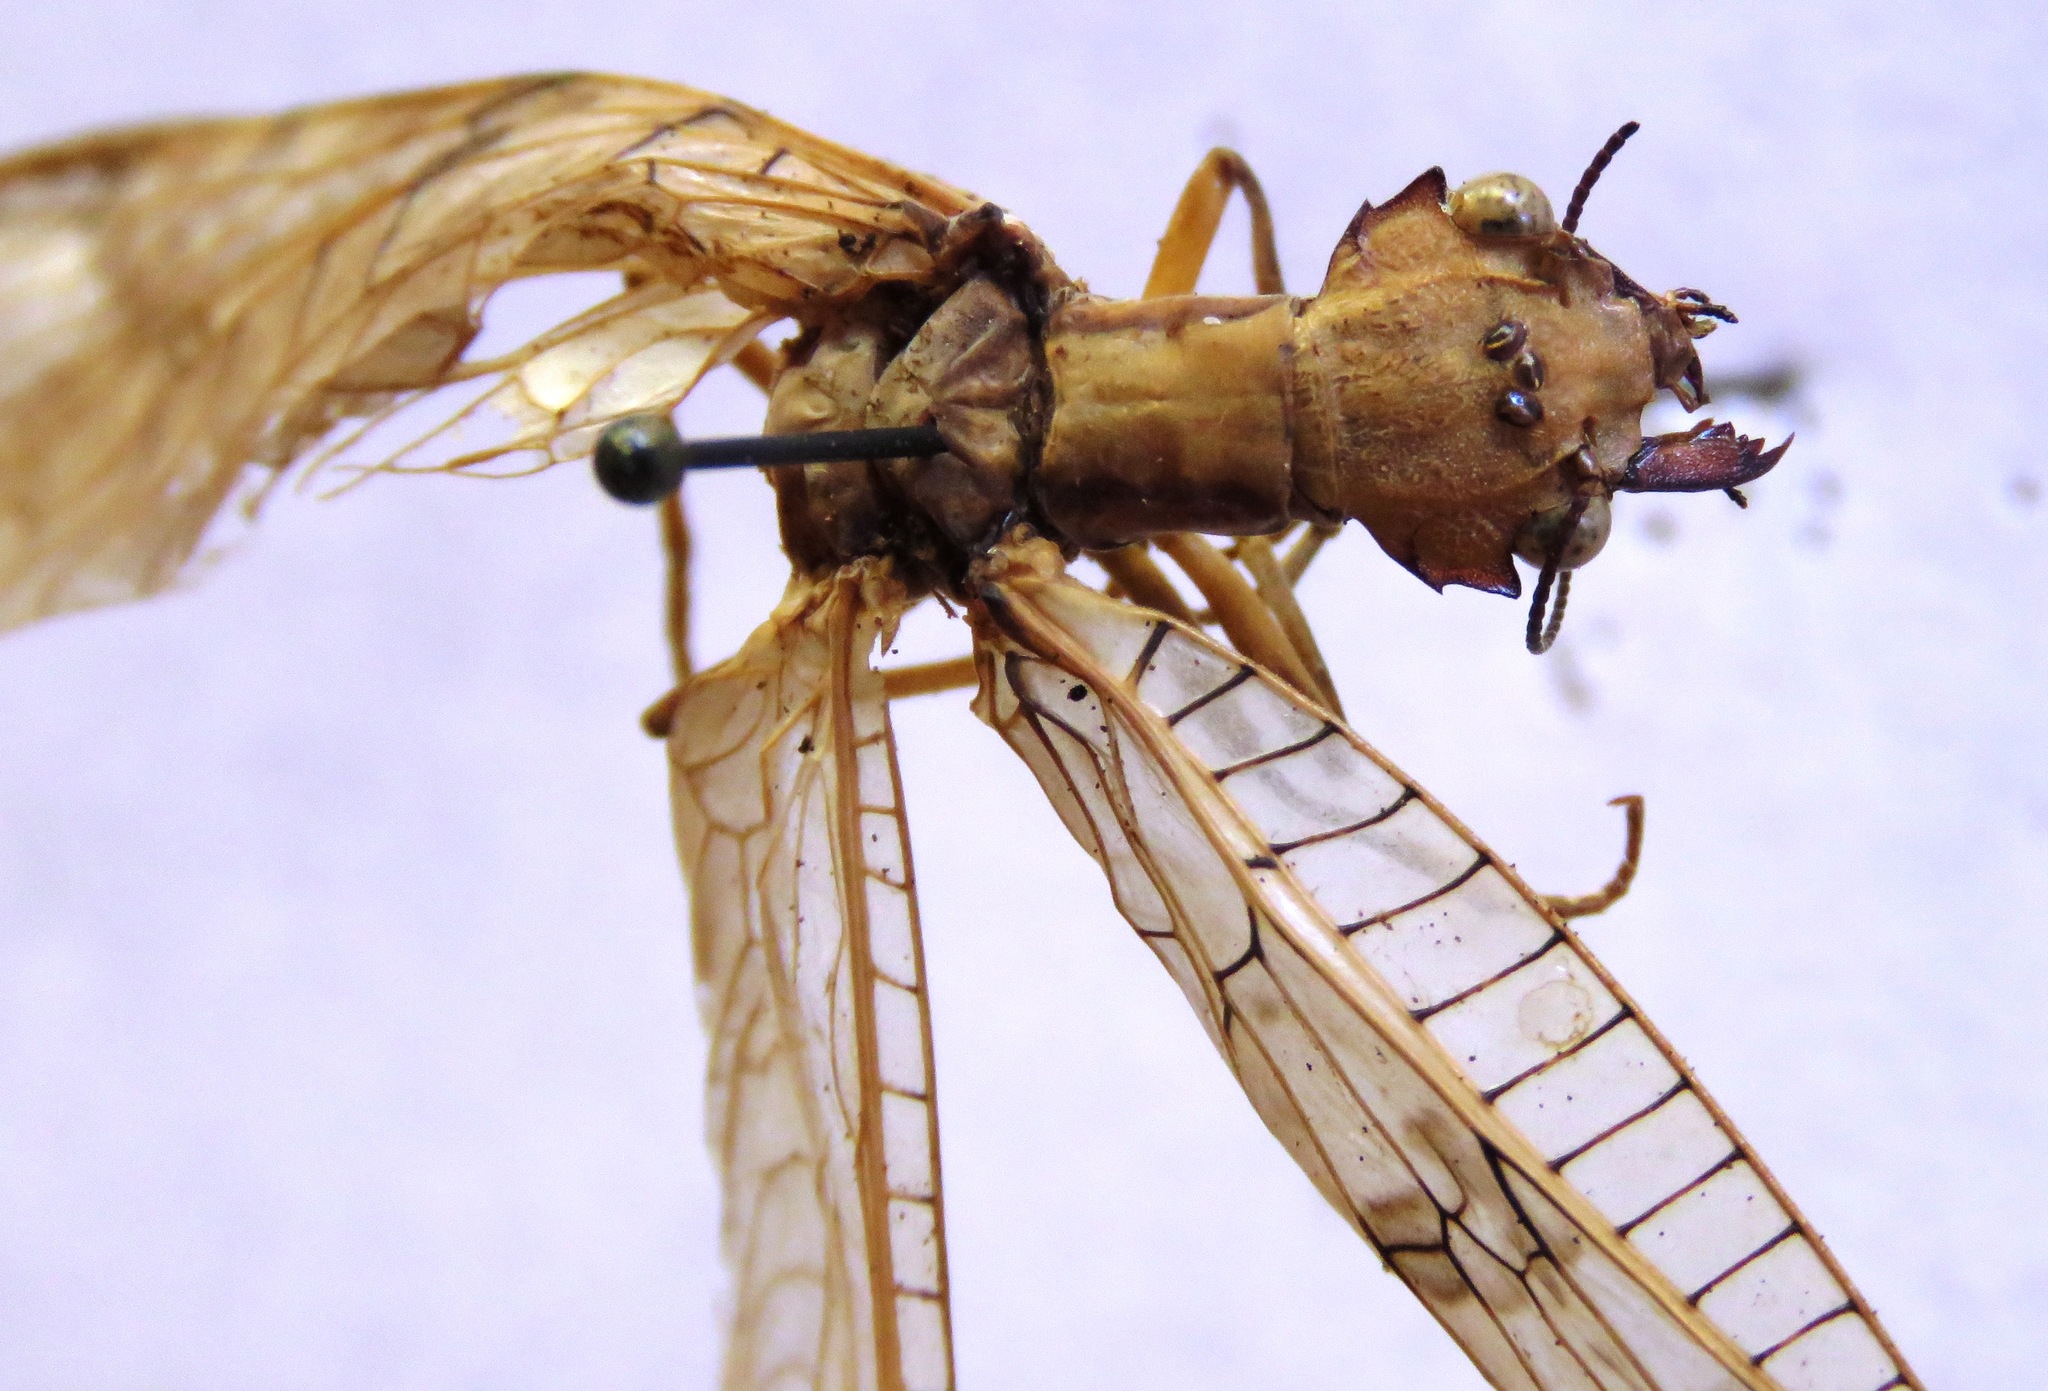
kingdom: Animalia
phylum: Arthropoda
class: Insecta
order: Megaloptera
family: Corydalidae
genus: Platyneuromus
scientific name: Platyneuromus honduranus
